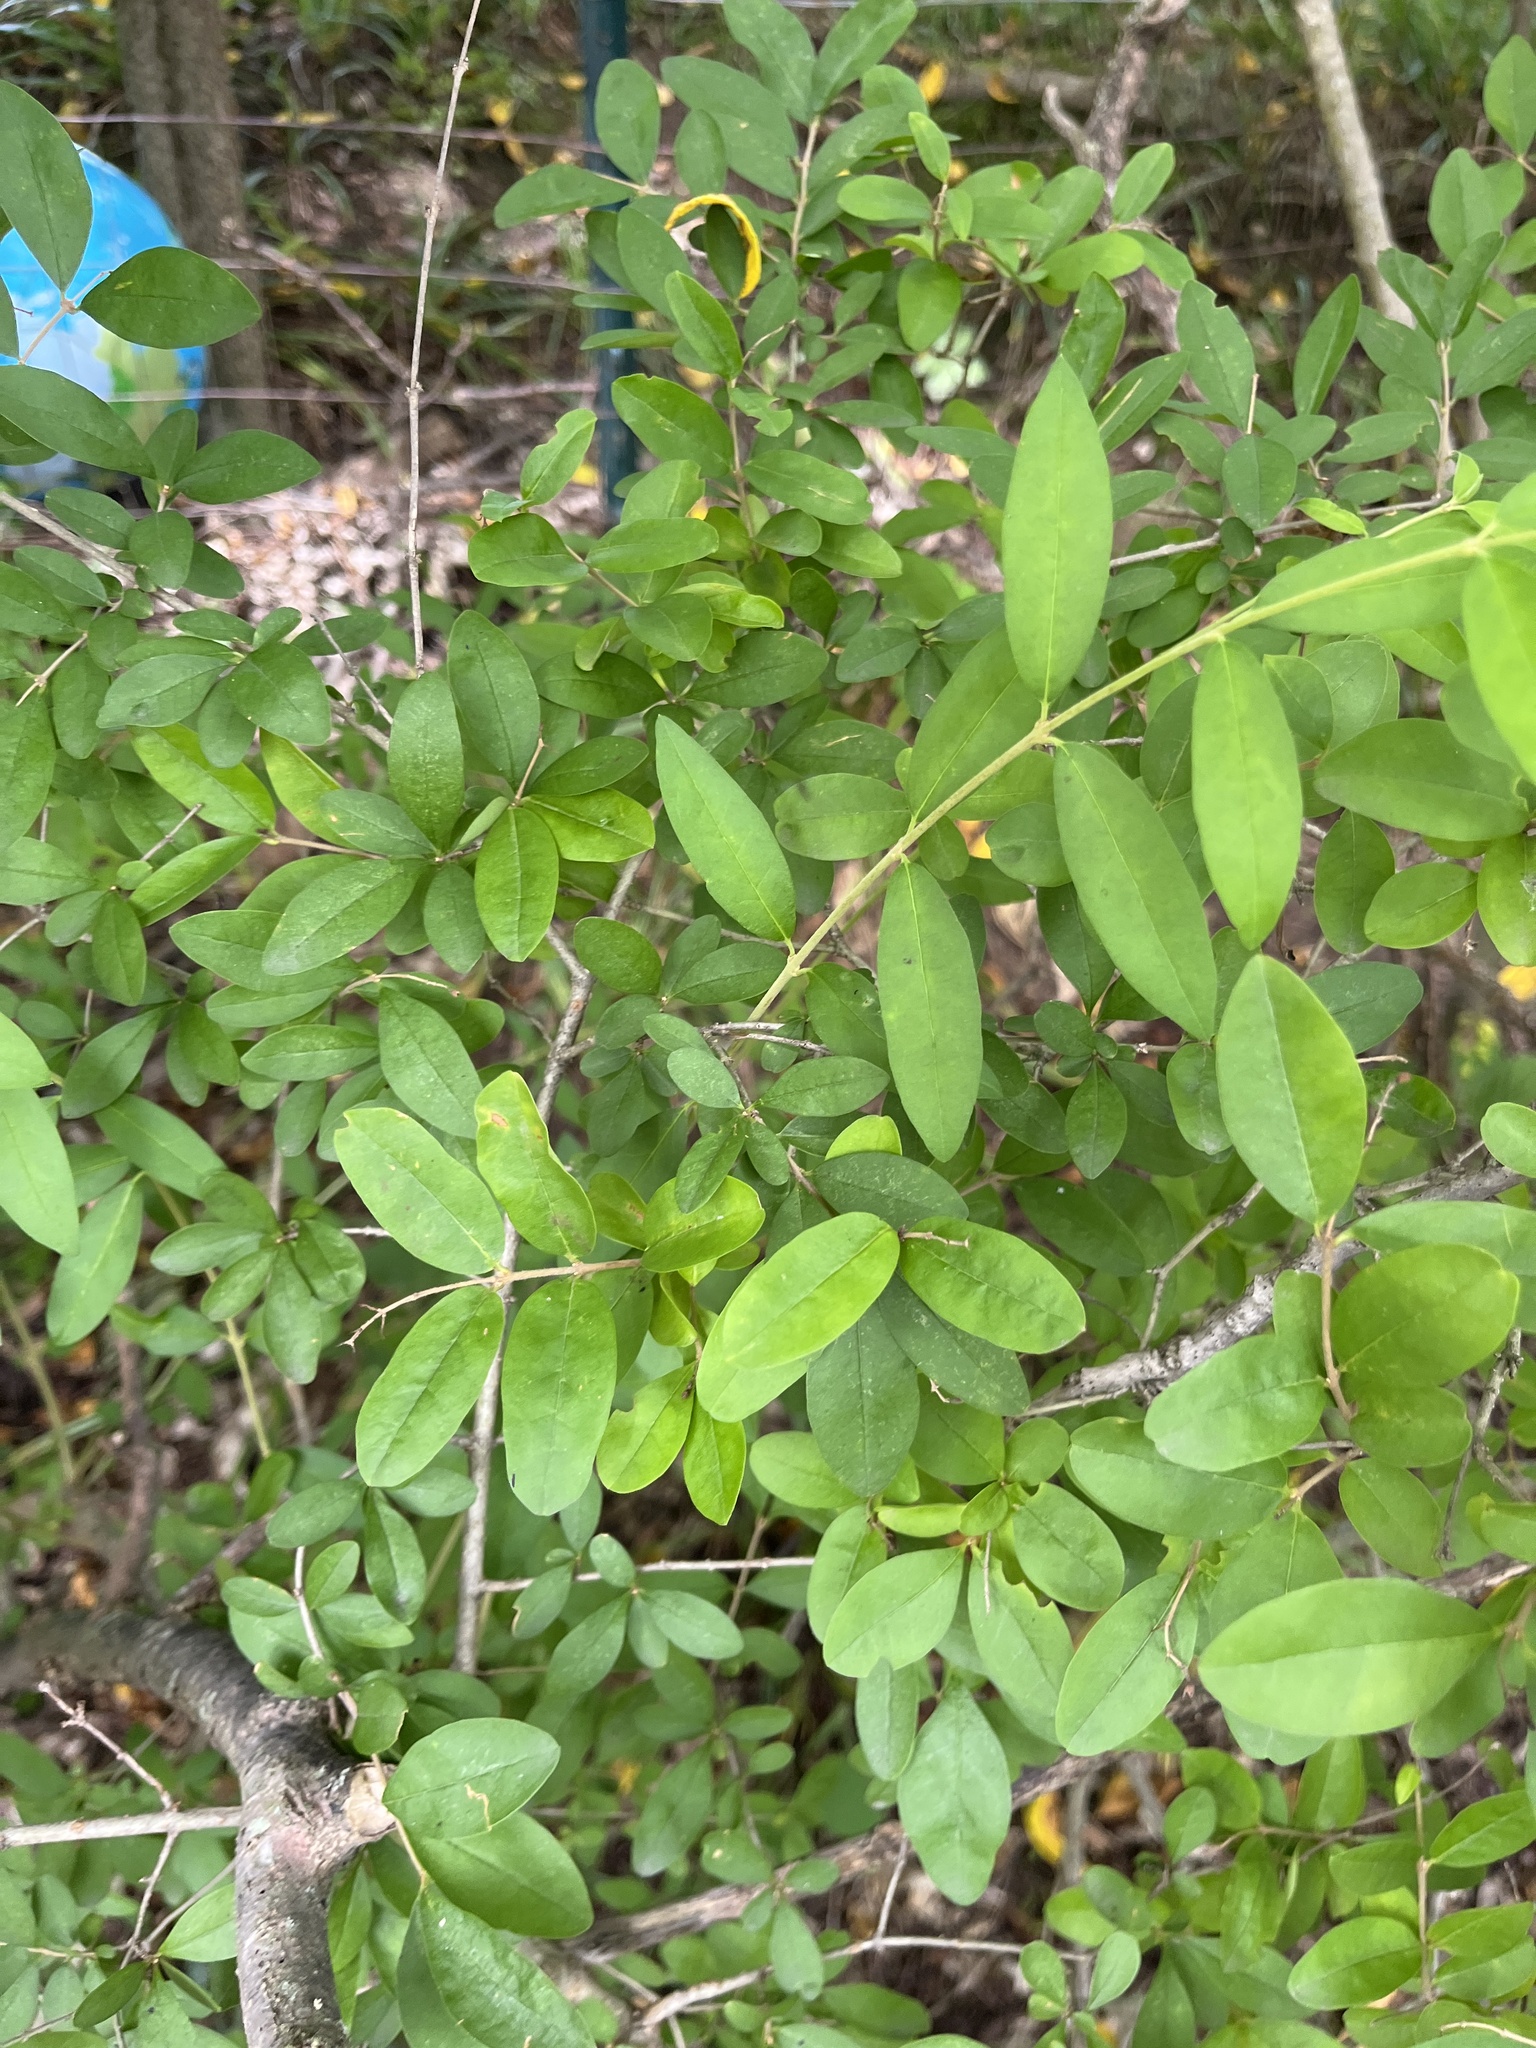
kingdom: Plantae
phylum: Tracheophyta
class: Magnoliopsida
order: Lamiales
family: Oleaceae
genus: Ligustrum
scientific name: Ligustrum obtusifolium
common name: Border privet
